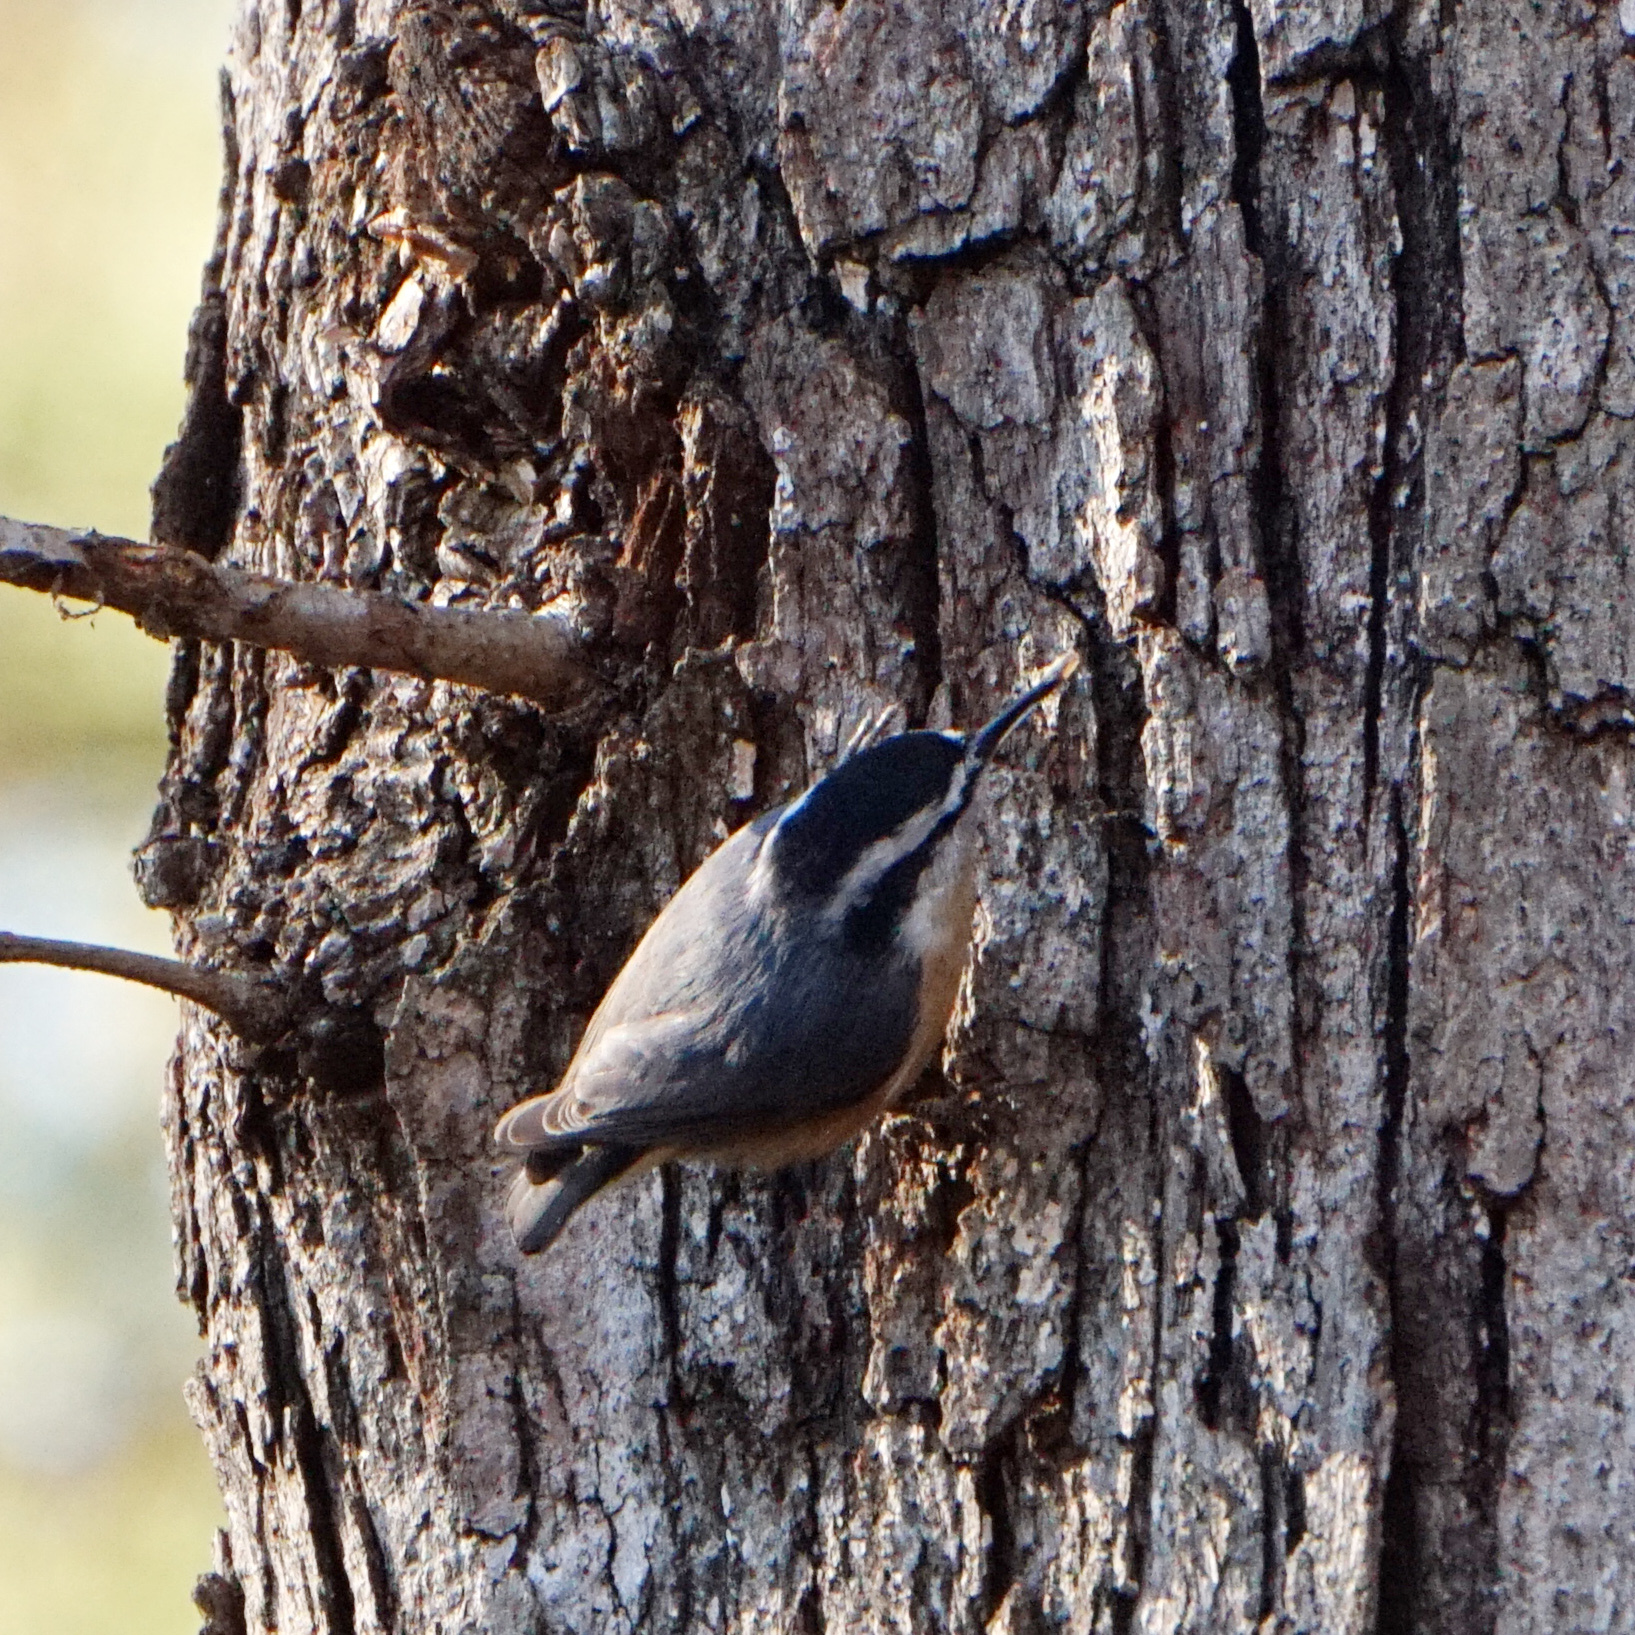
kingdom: Animalia
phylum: Chordata
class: Aves
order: Passeriformes
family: Sittidae
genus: Sitta
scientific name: Sitta canadensis
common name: Red-breasted nuthatch
